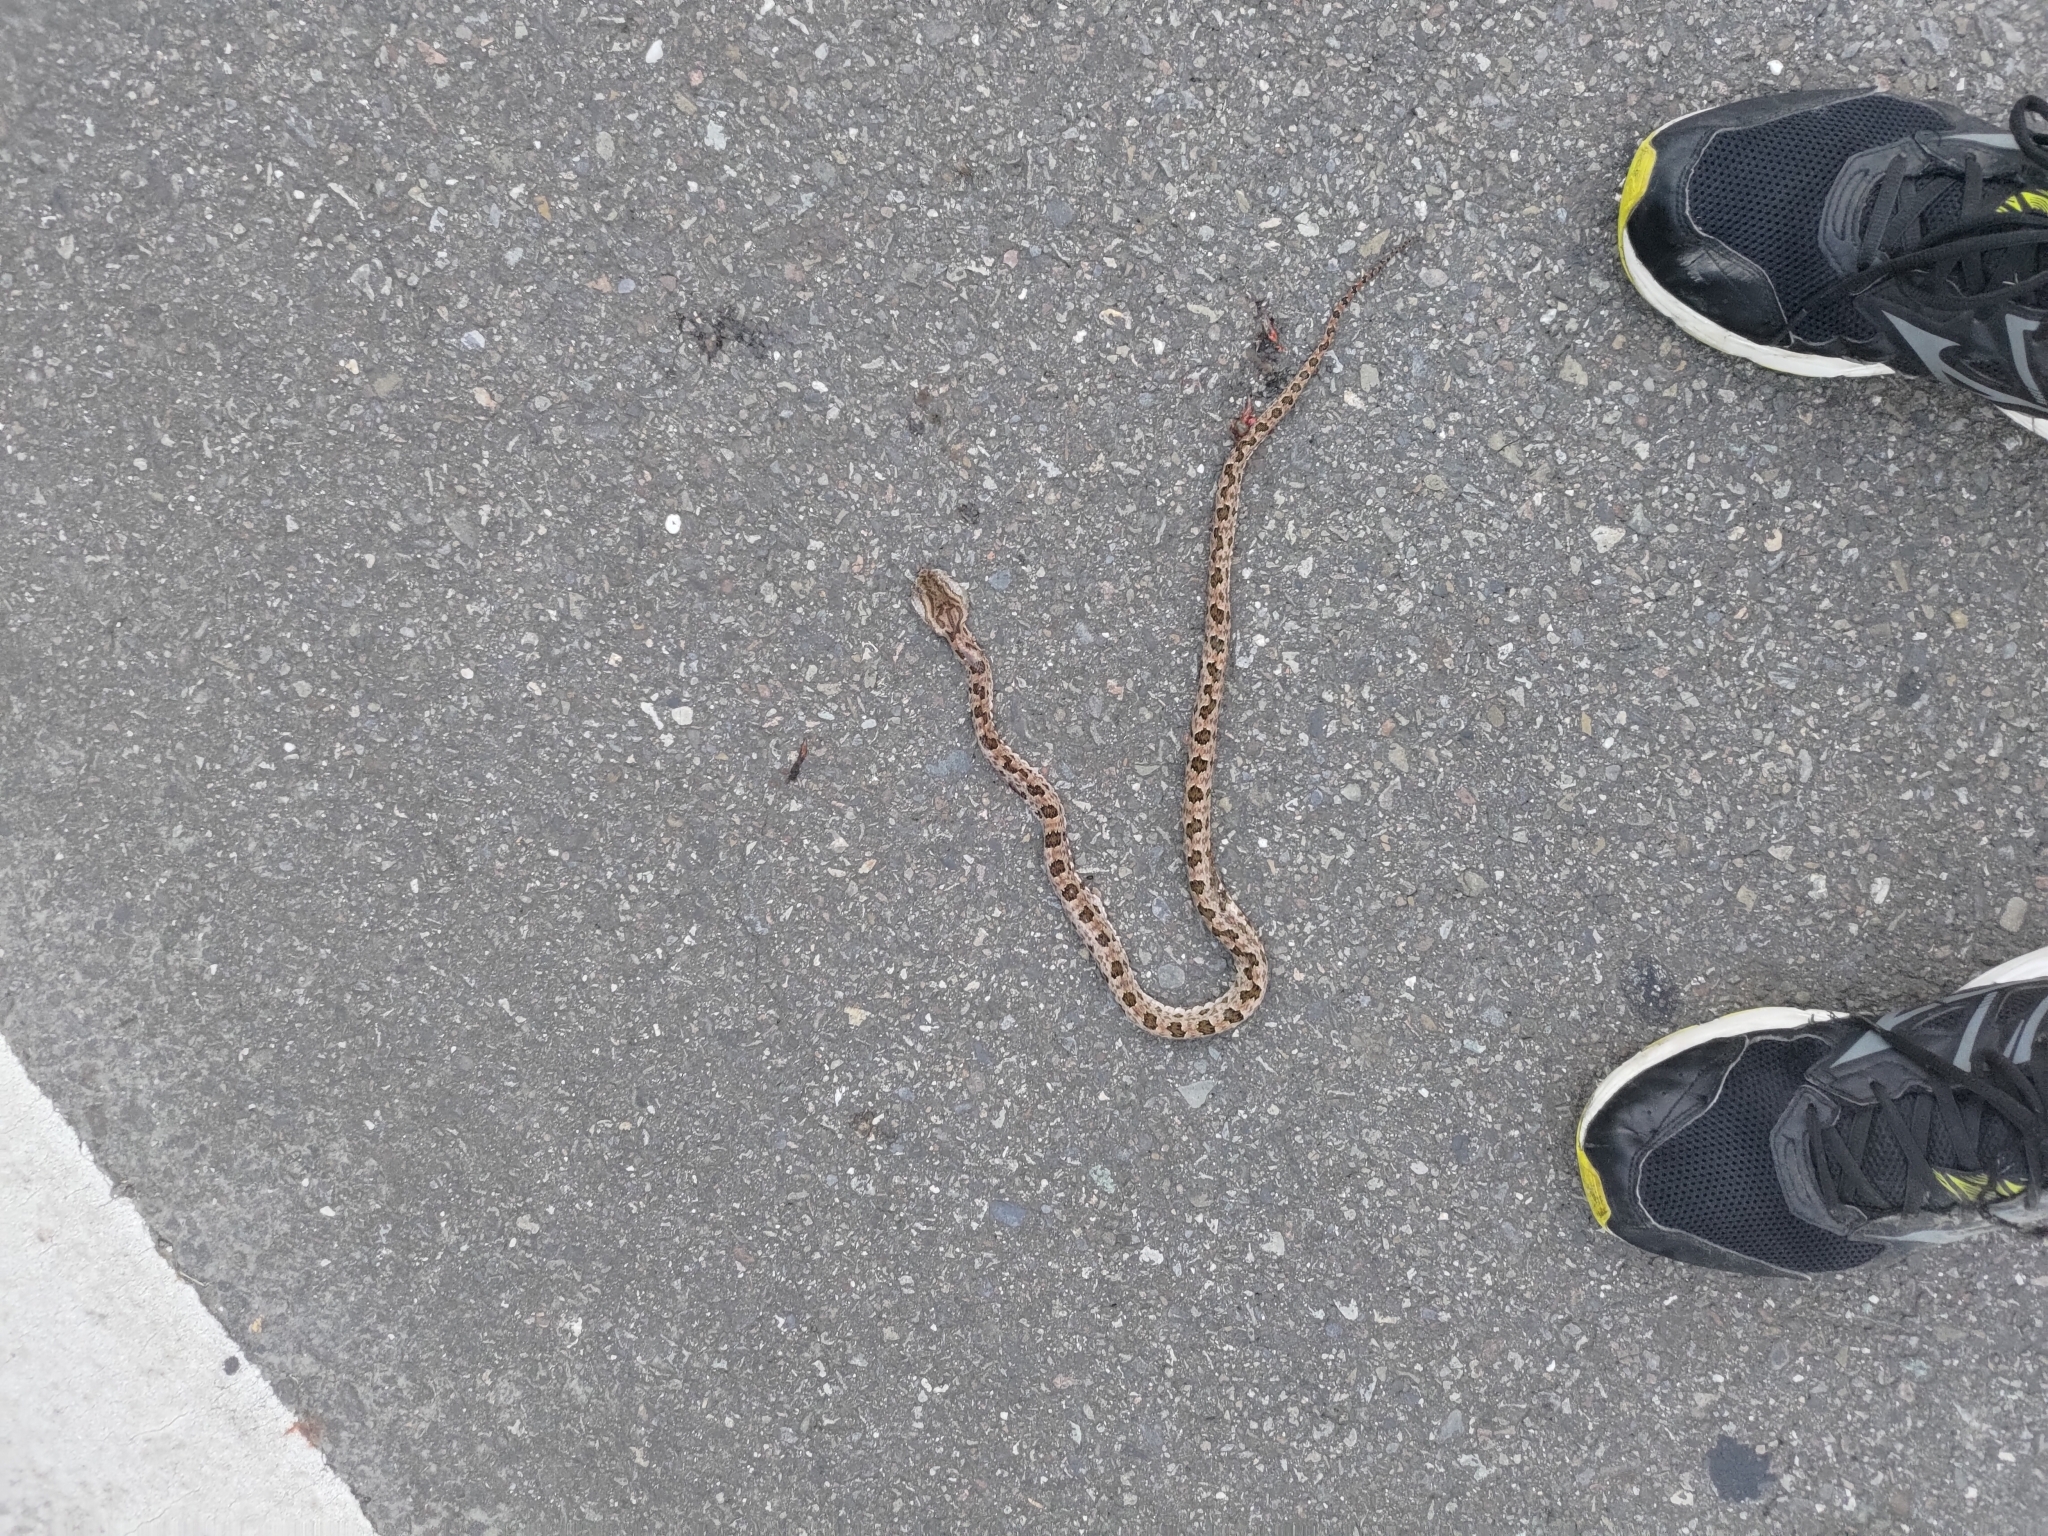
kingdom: Animalia
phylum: Chordata
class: Squamata
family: Viperidae
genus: Protobothrops
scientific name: Protobothrops mucrosquamatus
